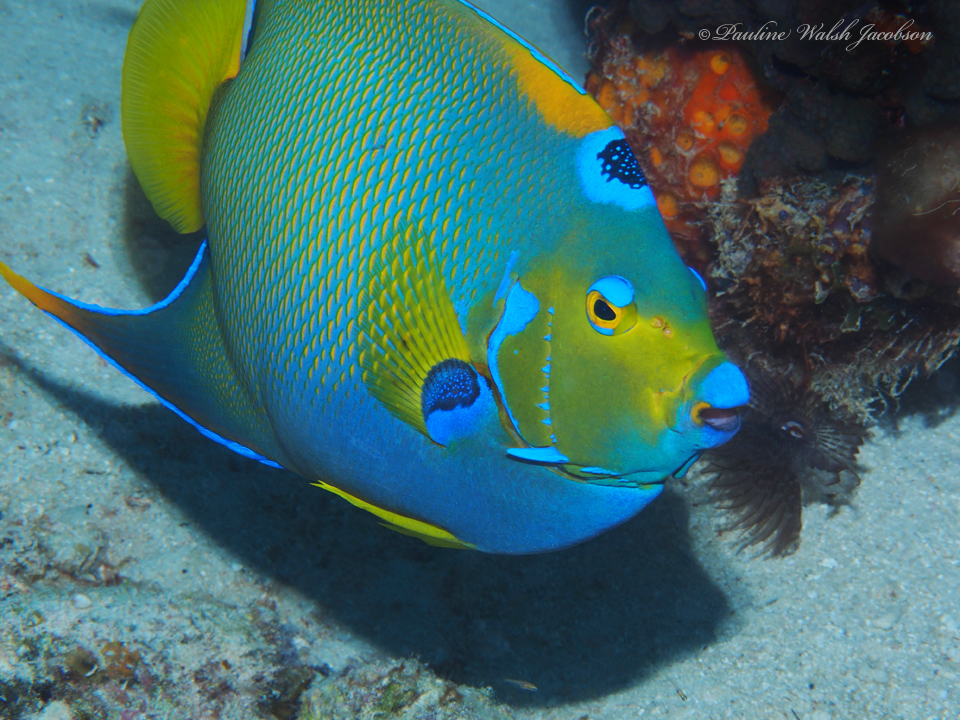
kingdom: Animalia
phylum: Chordata
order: Perciformes
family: Pomacanthidae
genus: Holacanthus
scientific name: Holacanthus ciliaris
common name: Queen angelfish
